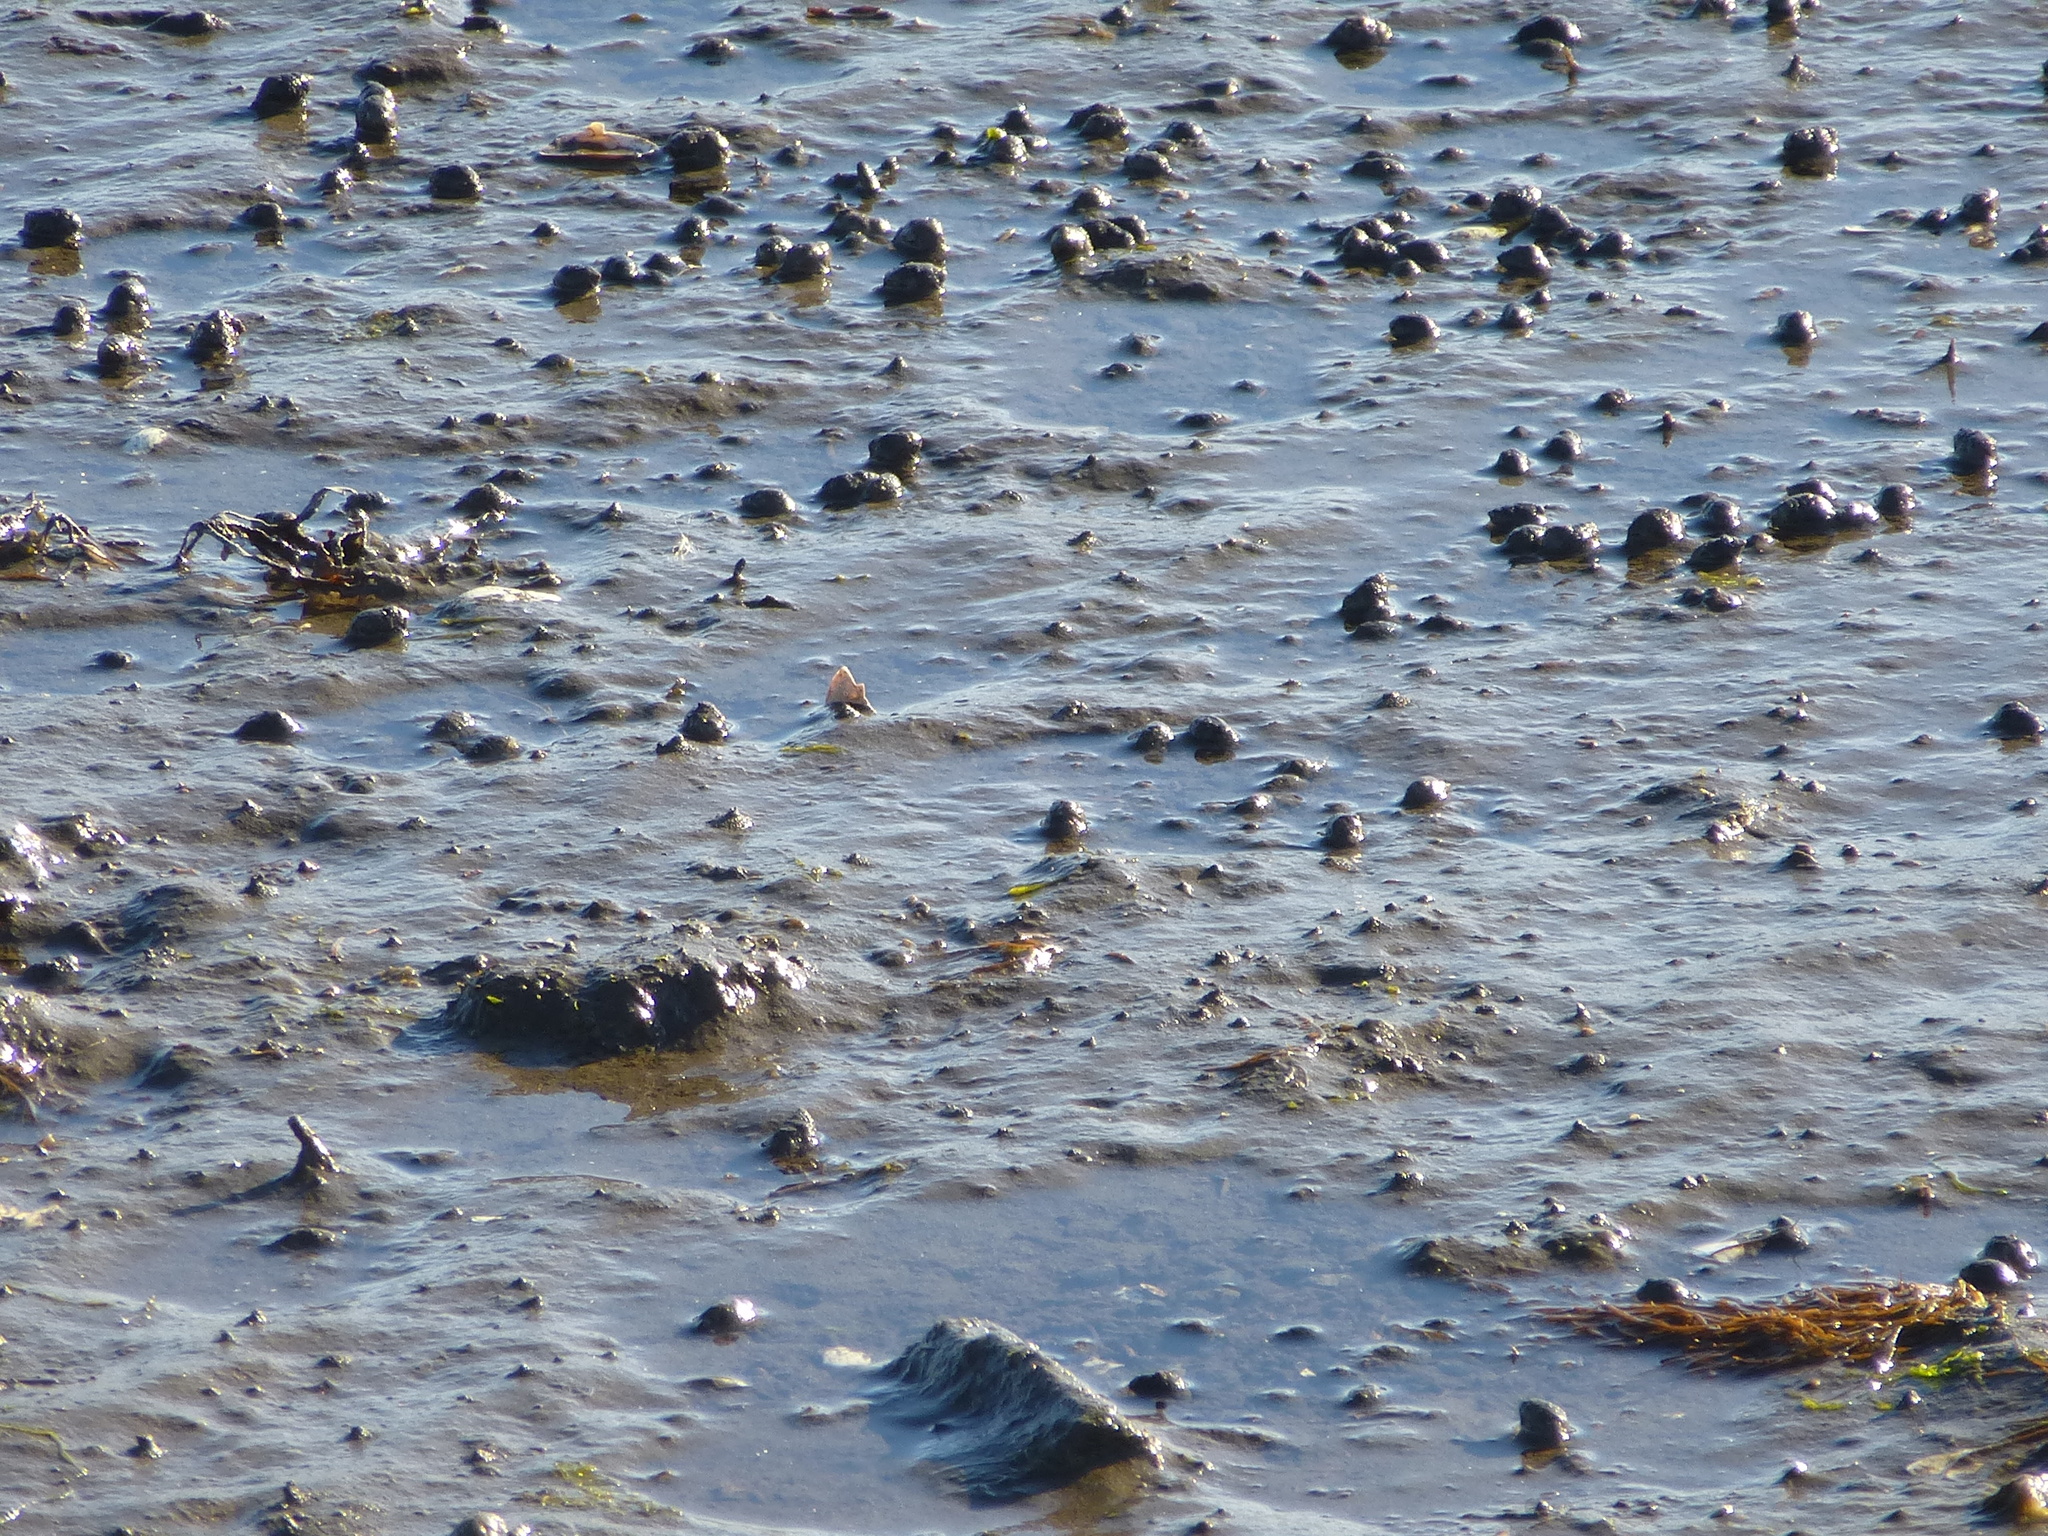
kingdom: Animalia
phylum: Mollusca
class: Gastropoda
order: Neogastropoda
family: Nassariidae
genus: Ilyanassa
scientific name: Ilyanassa obsoleta
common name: Eastern mudsnail
